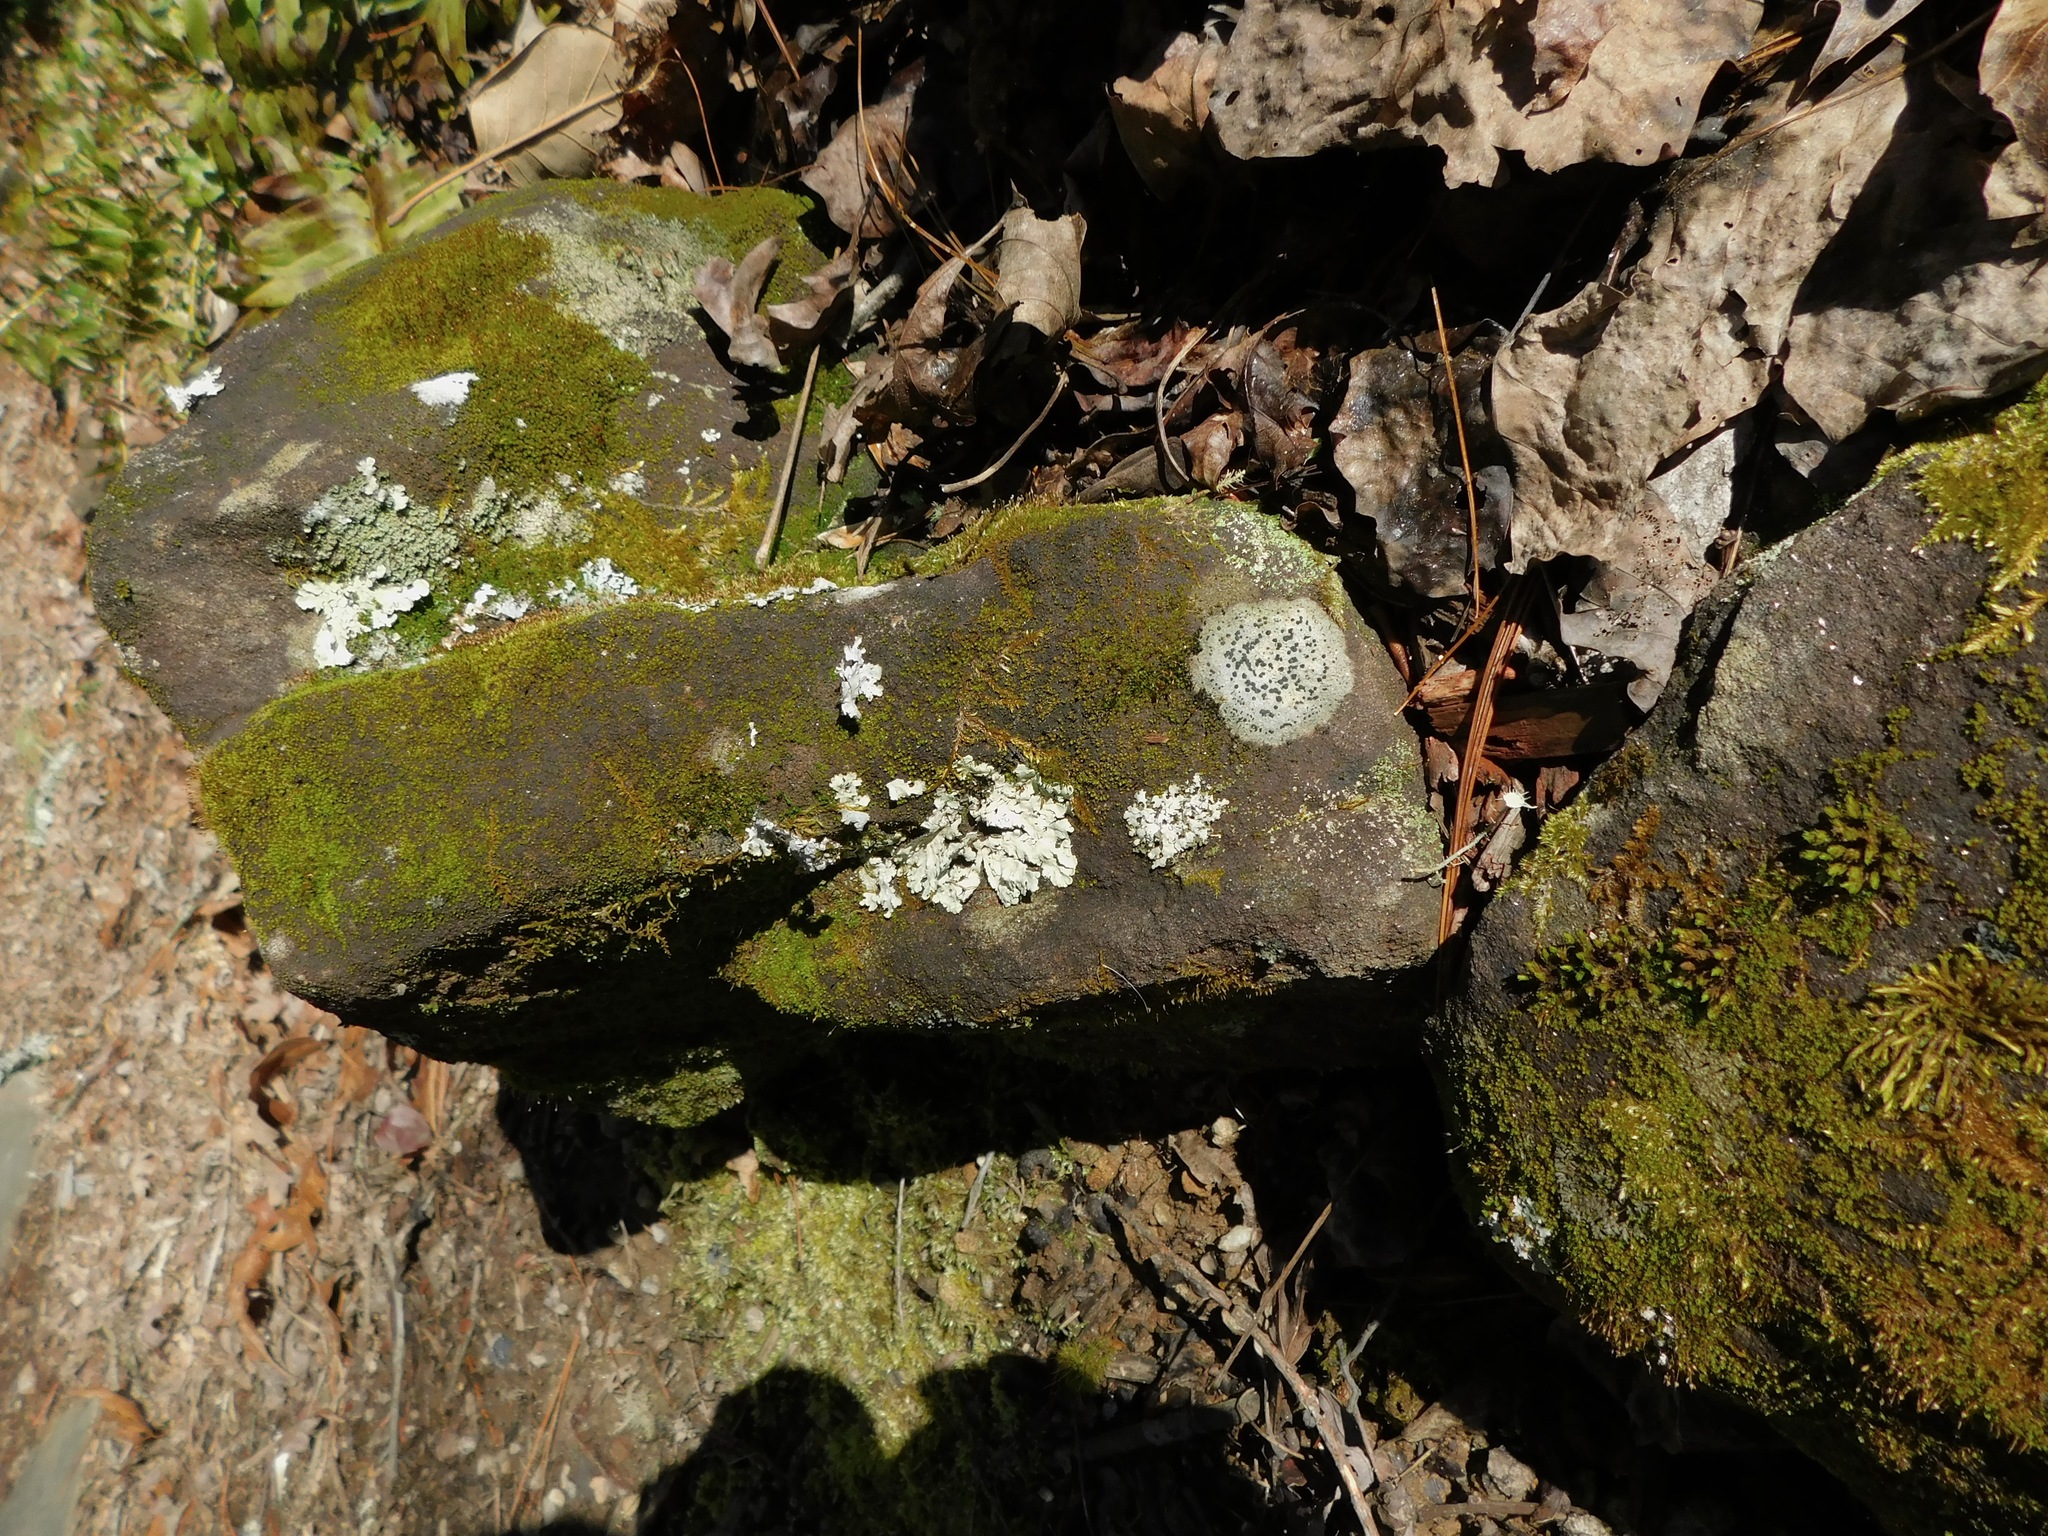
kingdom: Fungi
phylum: Ascomycota
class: Lecanoromycetes
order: Lecideales
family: Lecideaceae
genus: Porpidia
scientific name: Porpidia crustulata
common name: Concentric boulder lichen
